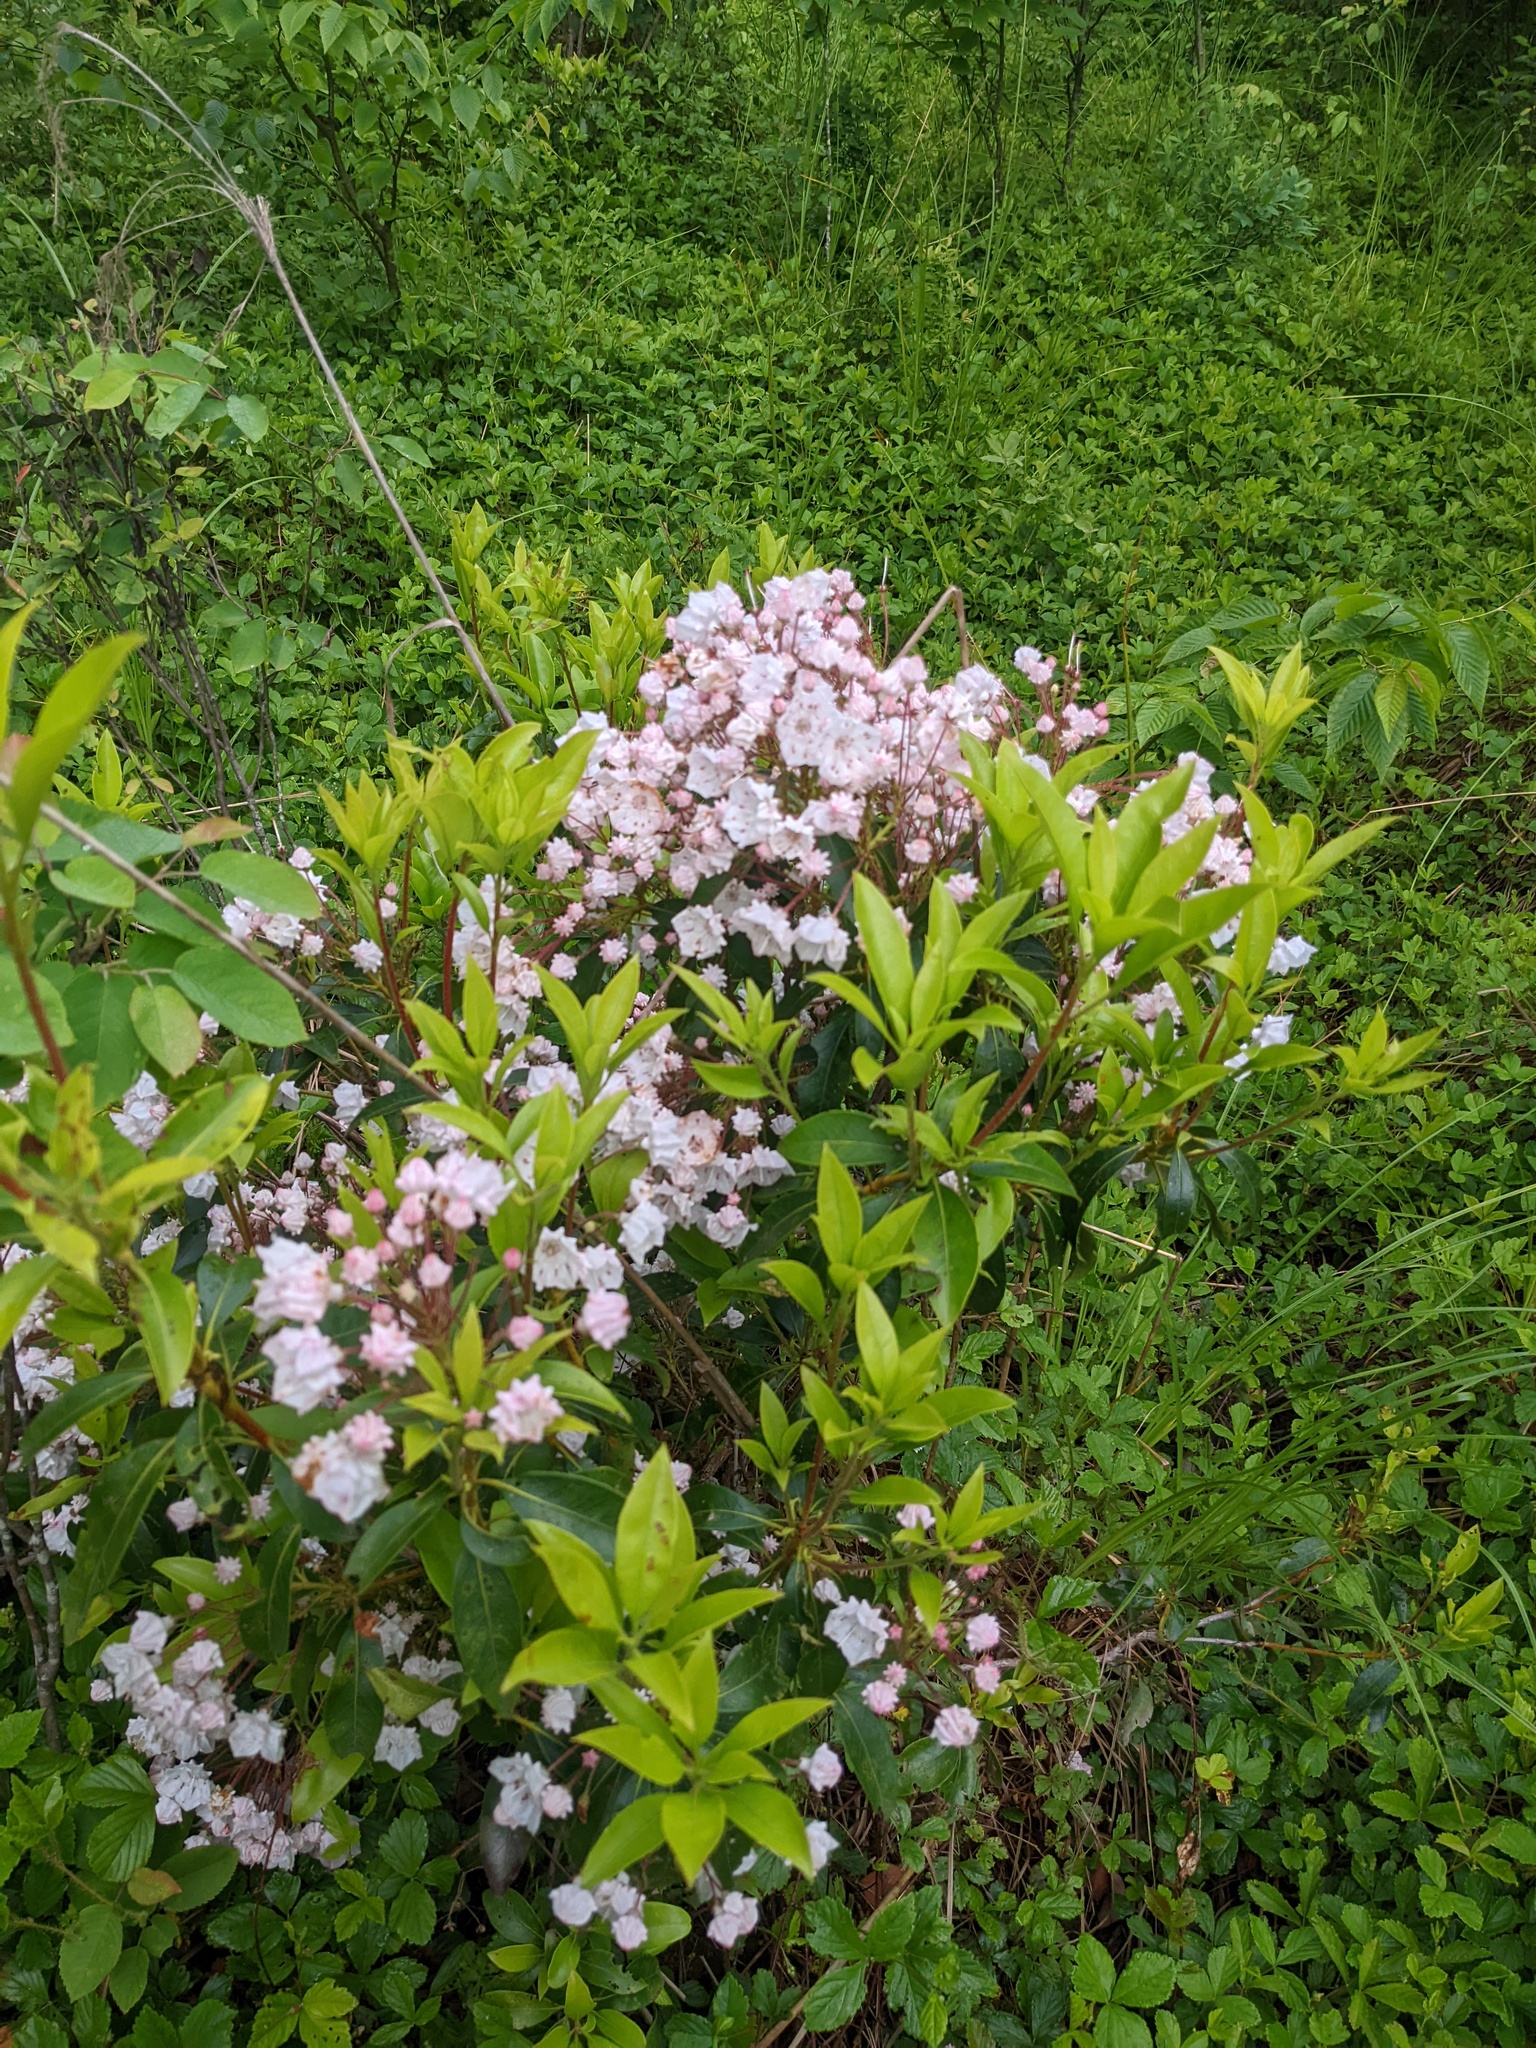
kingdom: Plantae
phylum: Tracheophyta
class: Magnoliopsida
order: Ericales
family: Ericaceae
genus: Kalmia
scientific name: Kalmia latifolia
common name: Mountain-laurel
